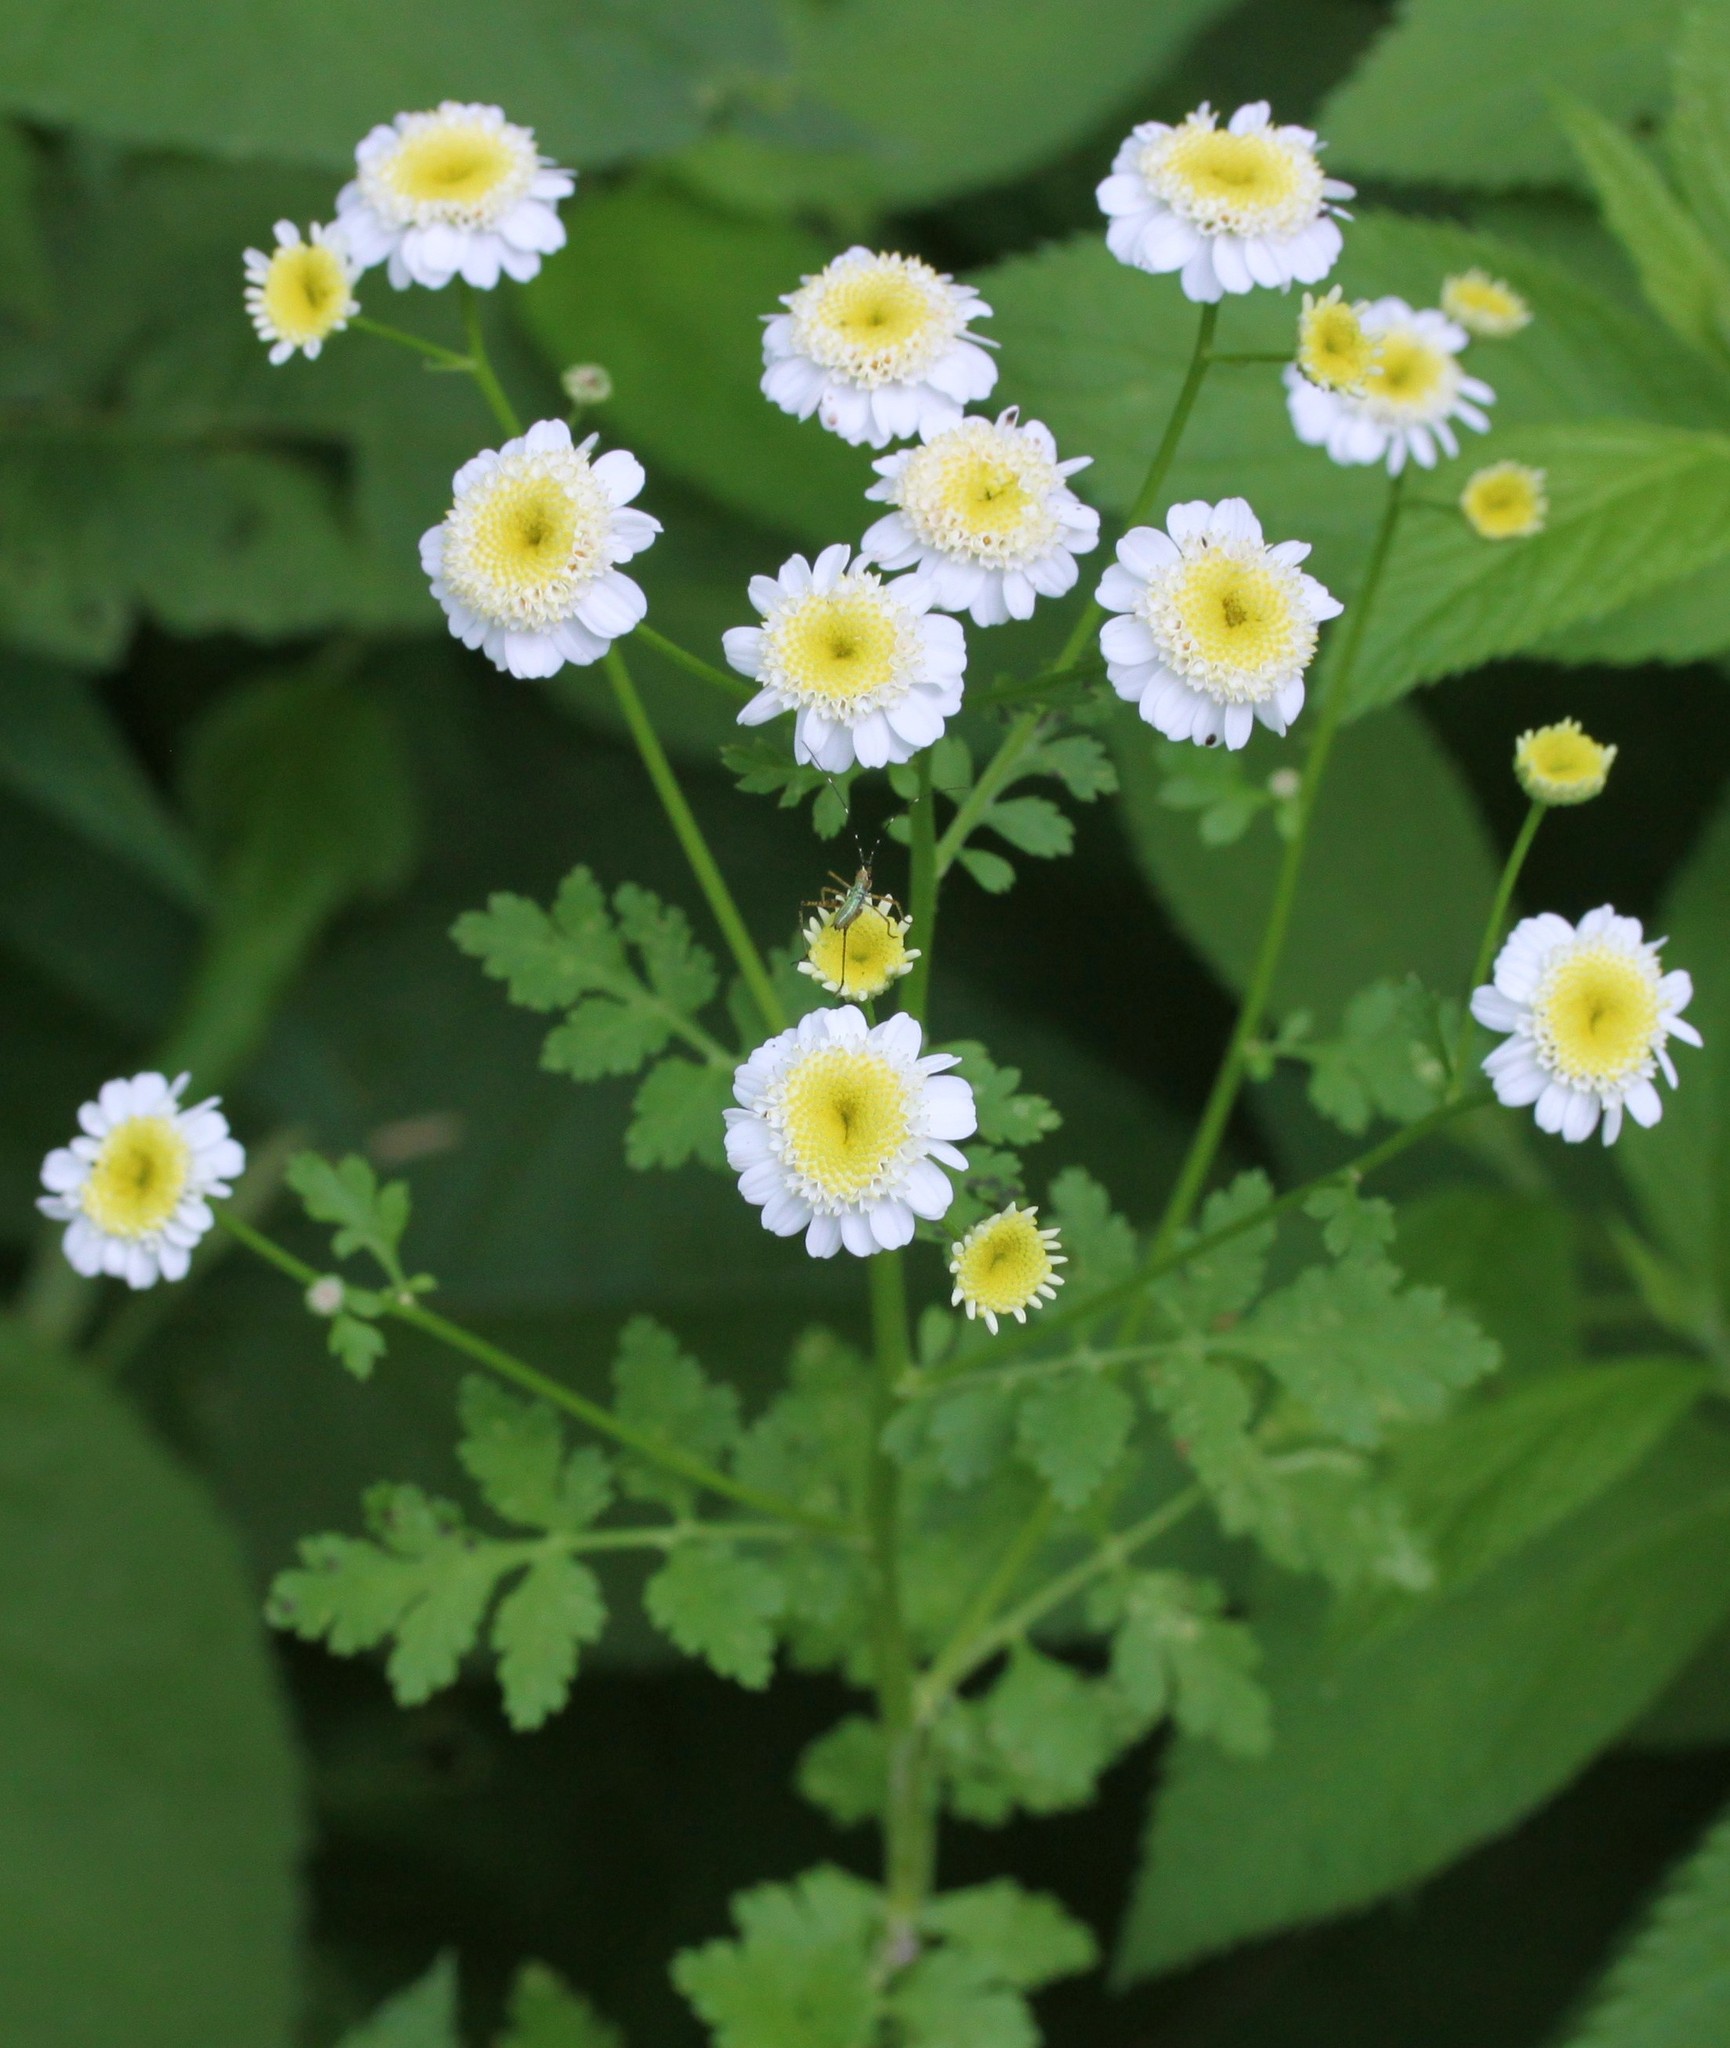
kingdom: Plantae
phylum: Tracheophyta
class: Magnoliopsida
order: Asterales
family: Asteraceae
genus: Tanacetum
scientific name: Tanacetum parthenium
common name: Feverfew
